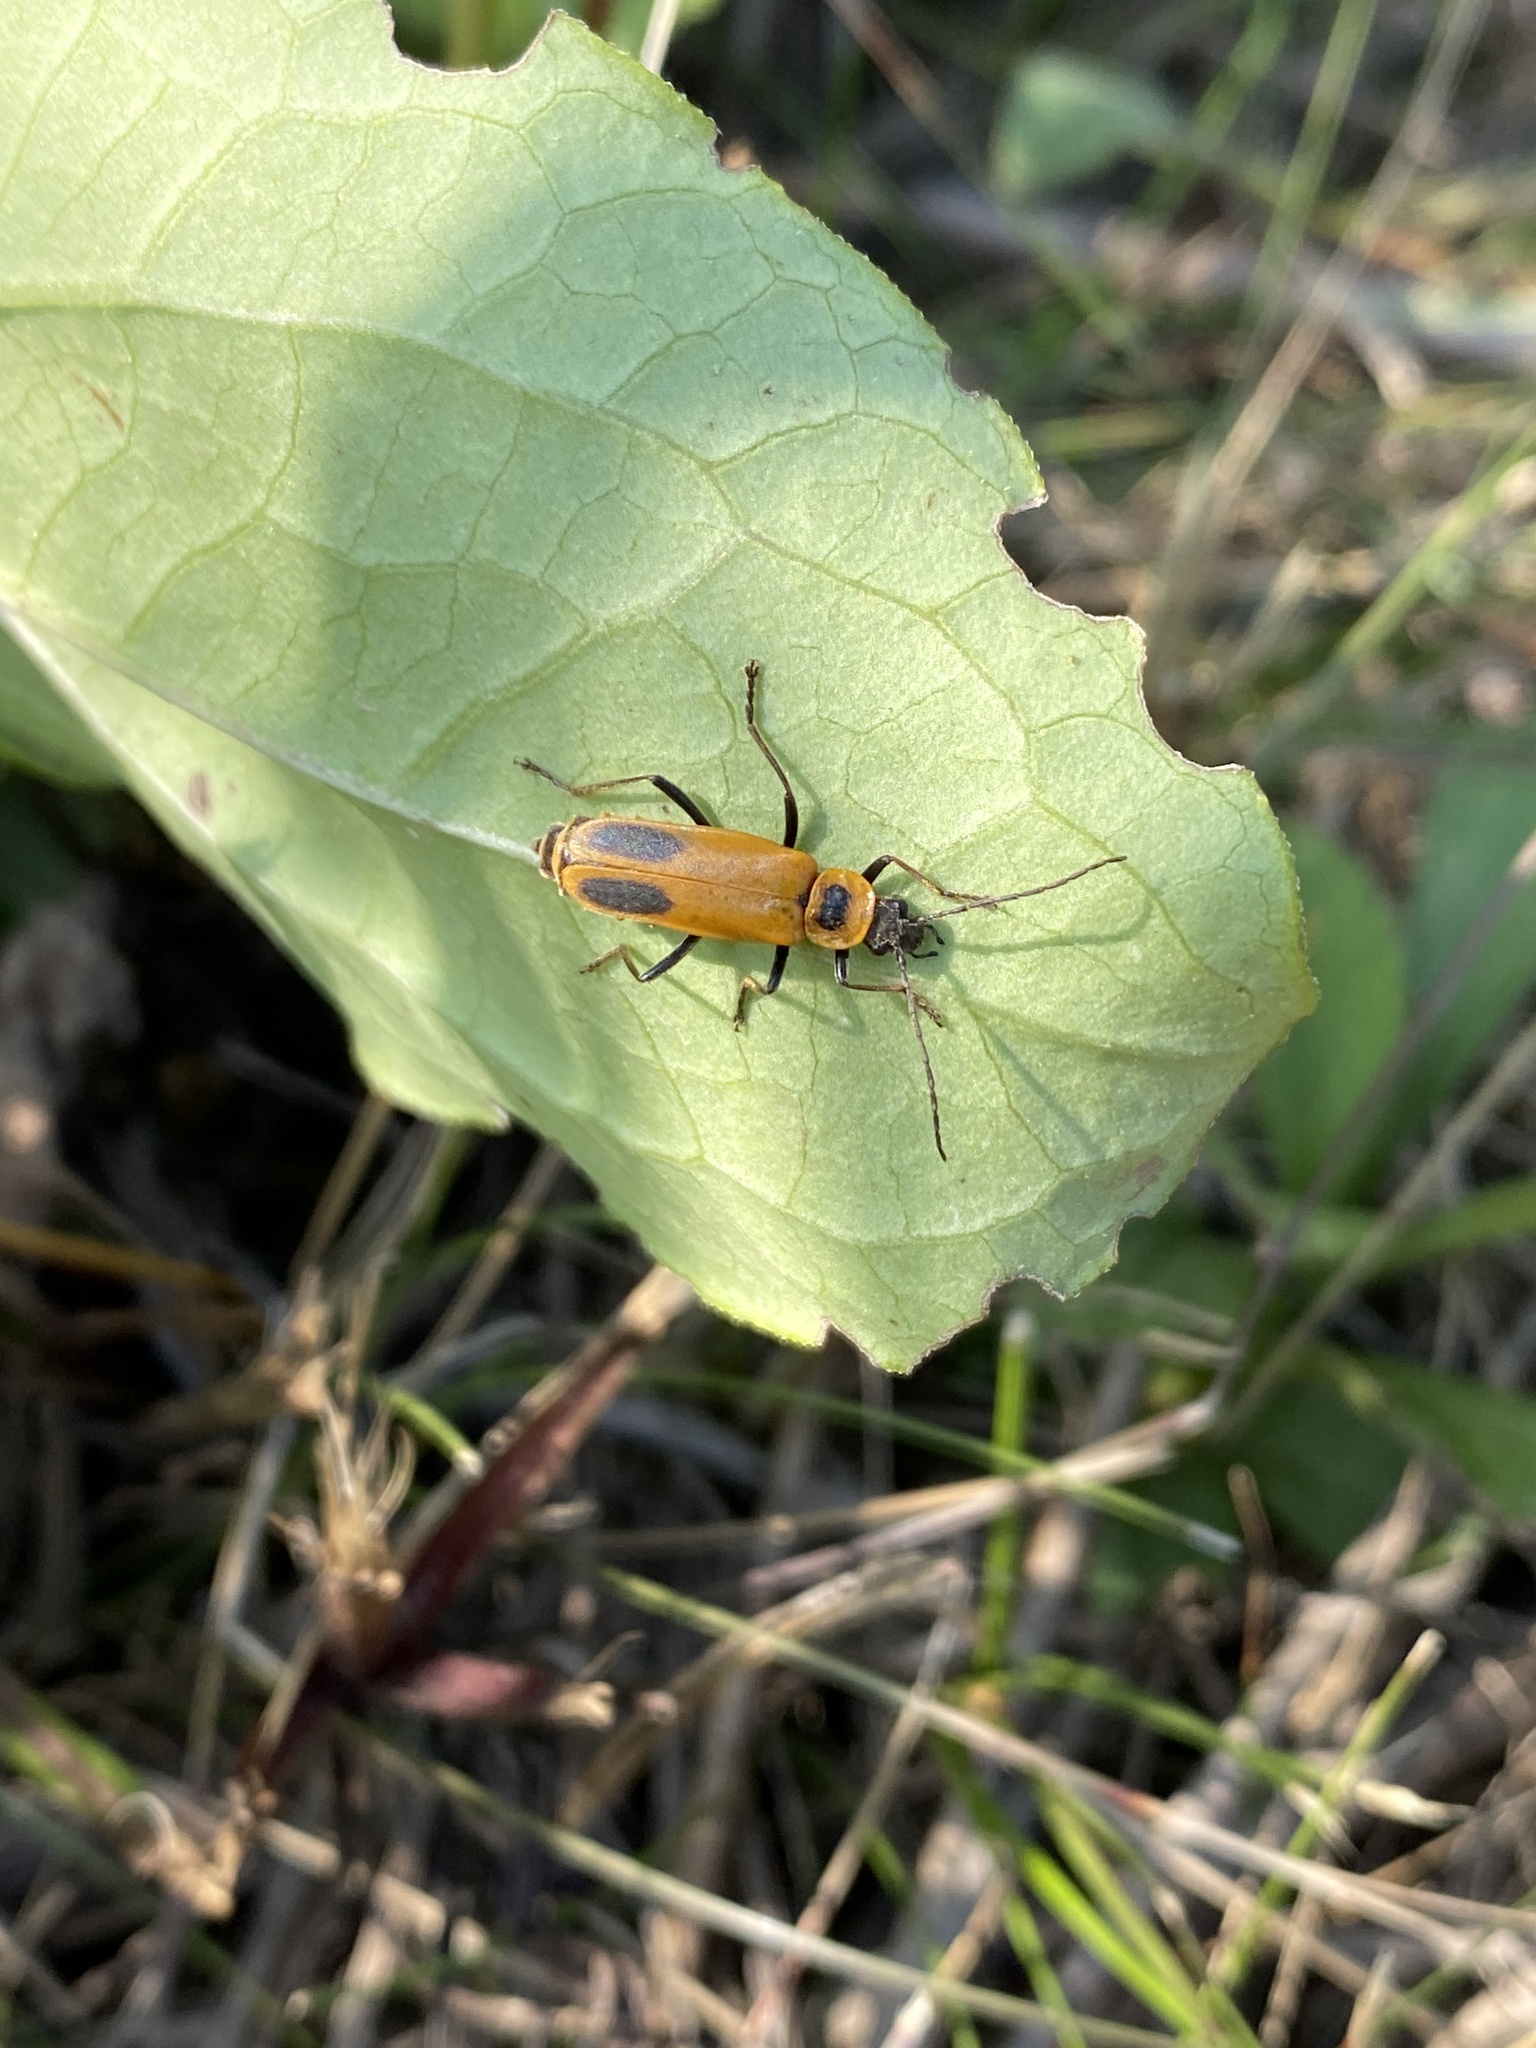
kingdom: Animalia
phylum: Arthropoda
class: Insecta
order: Coleoptera
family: Cantharidae
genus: Chauliognathus
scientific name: Chauliognathus pensylvanicus
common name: Goldenrod soldier beetle
